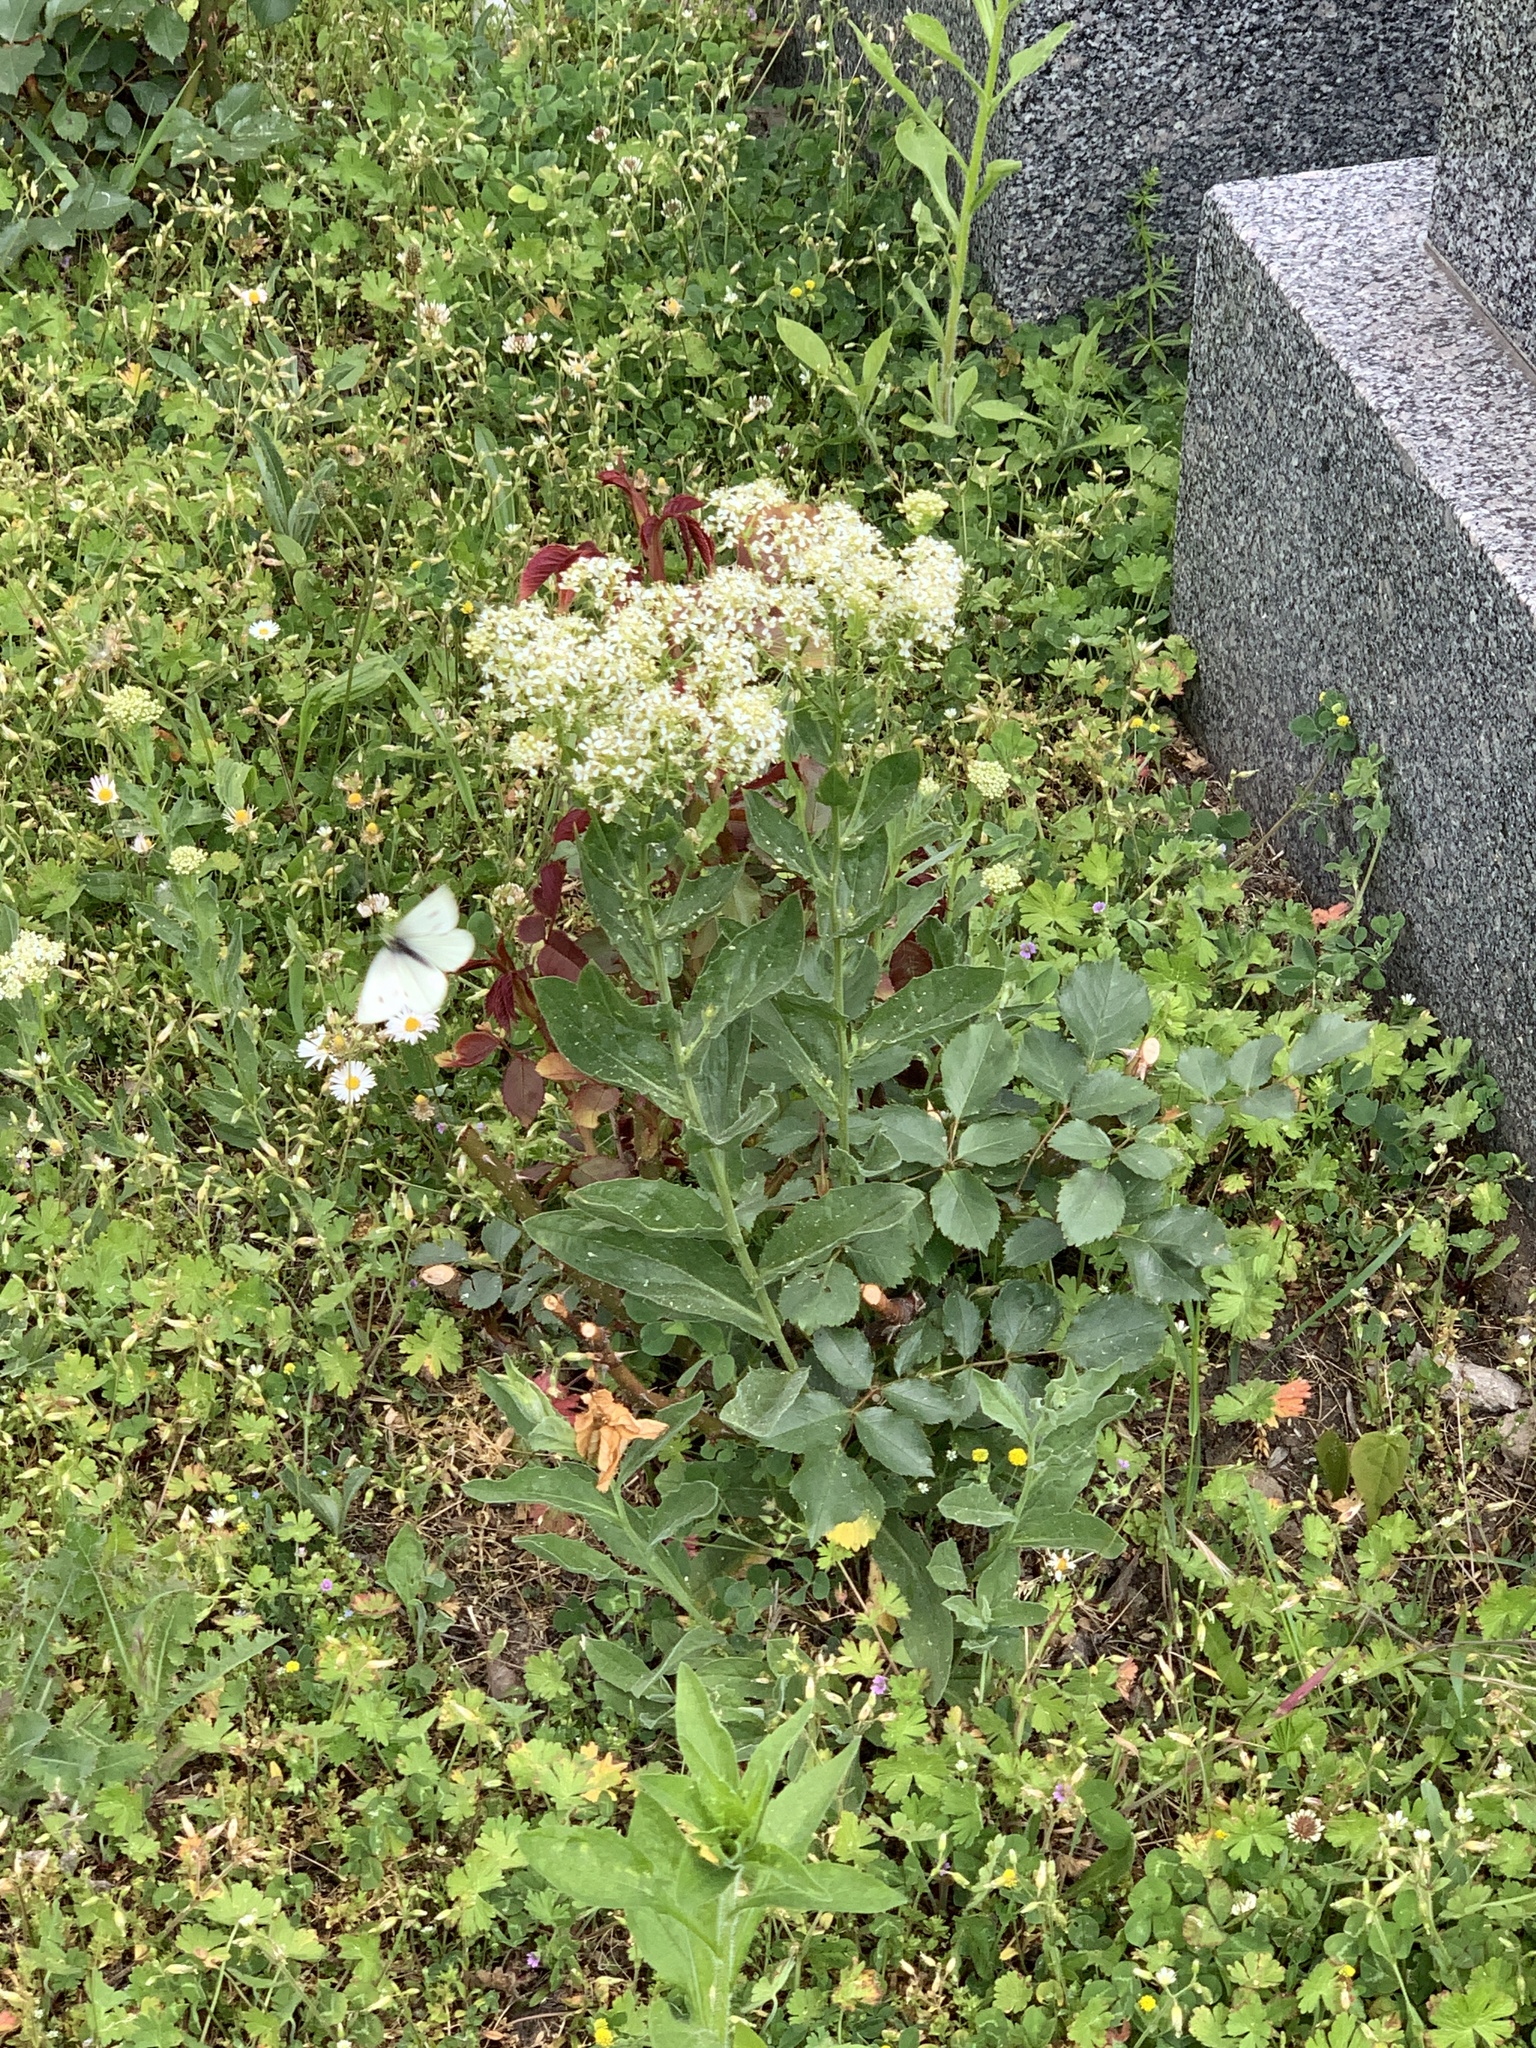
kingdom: Plantae
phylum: Tracheophyta
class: Magnoliopsida
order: Brassicales
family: Brassicaceae
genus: Lepidium
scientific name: Lepidium draba
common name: Hoary cress
